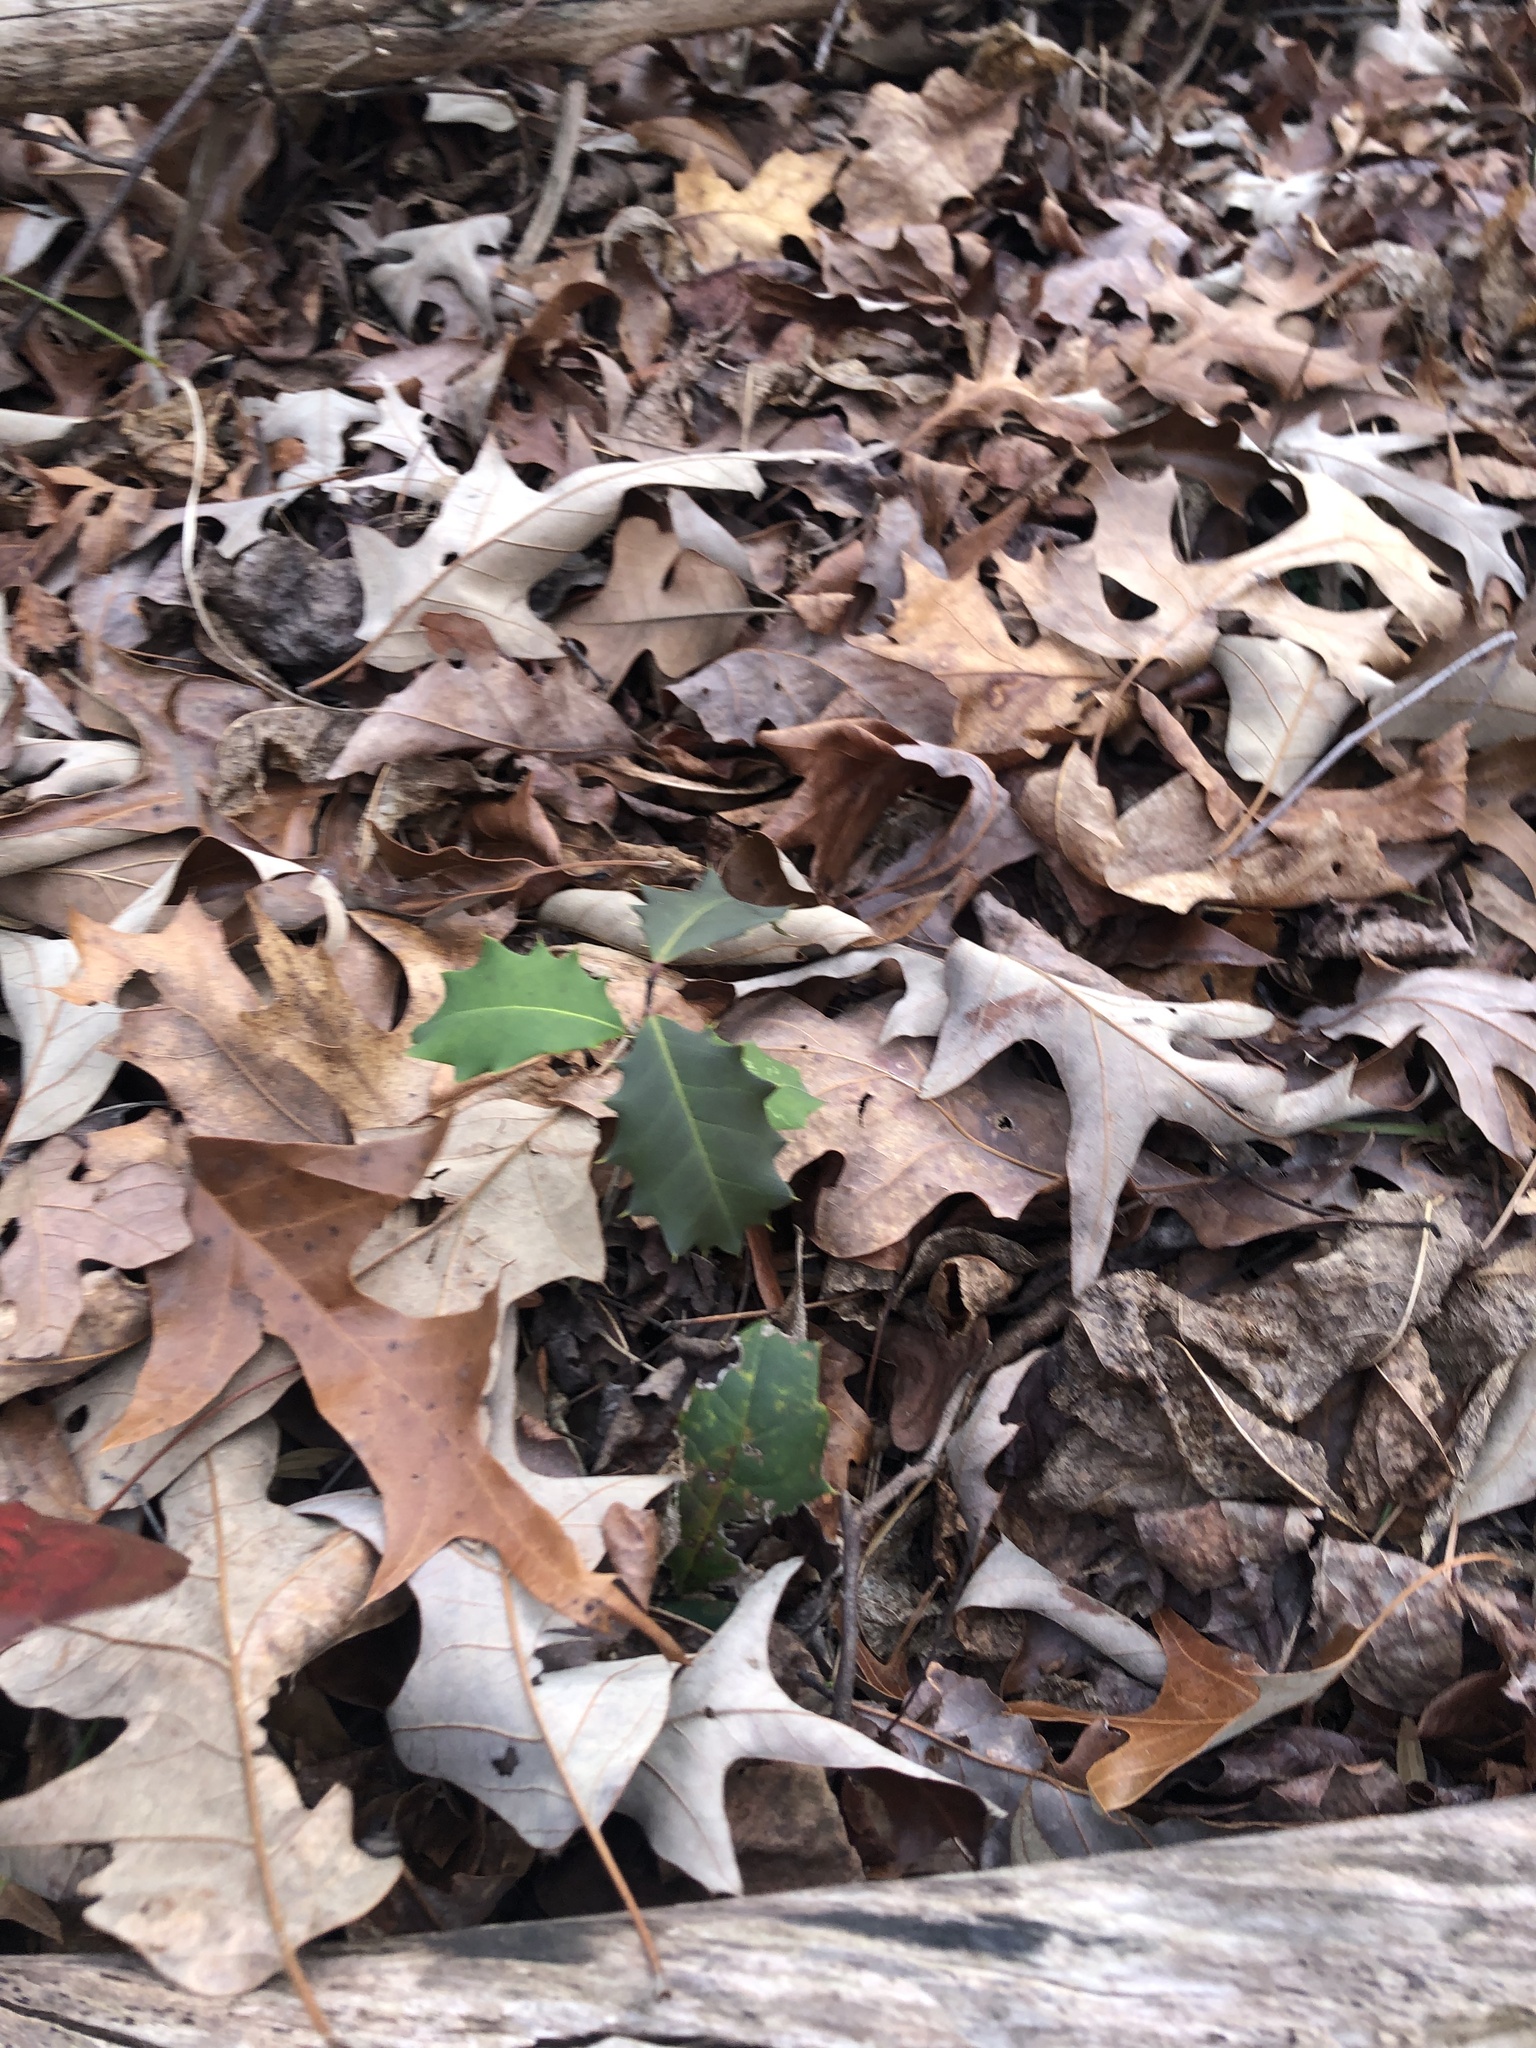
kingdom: Plantae
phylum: Tracheophyta
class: Magnoliopsida
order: Aquifoliales
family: Aquifoliaceae
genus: Ilex
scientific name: Ilex opaca
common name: American holly
